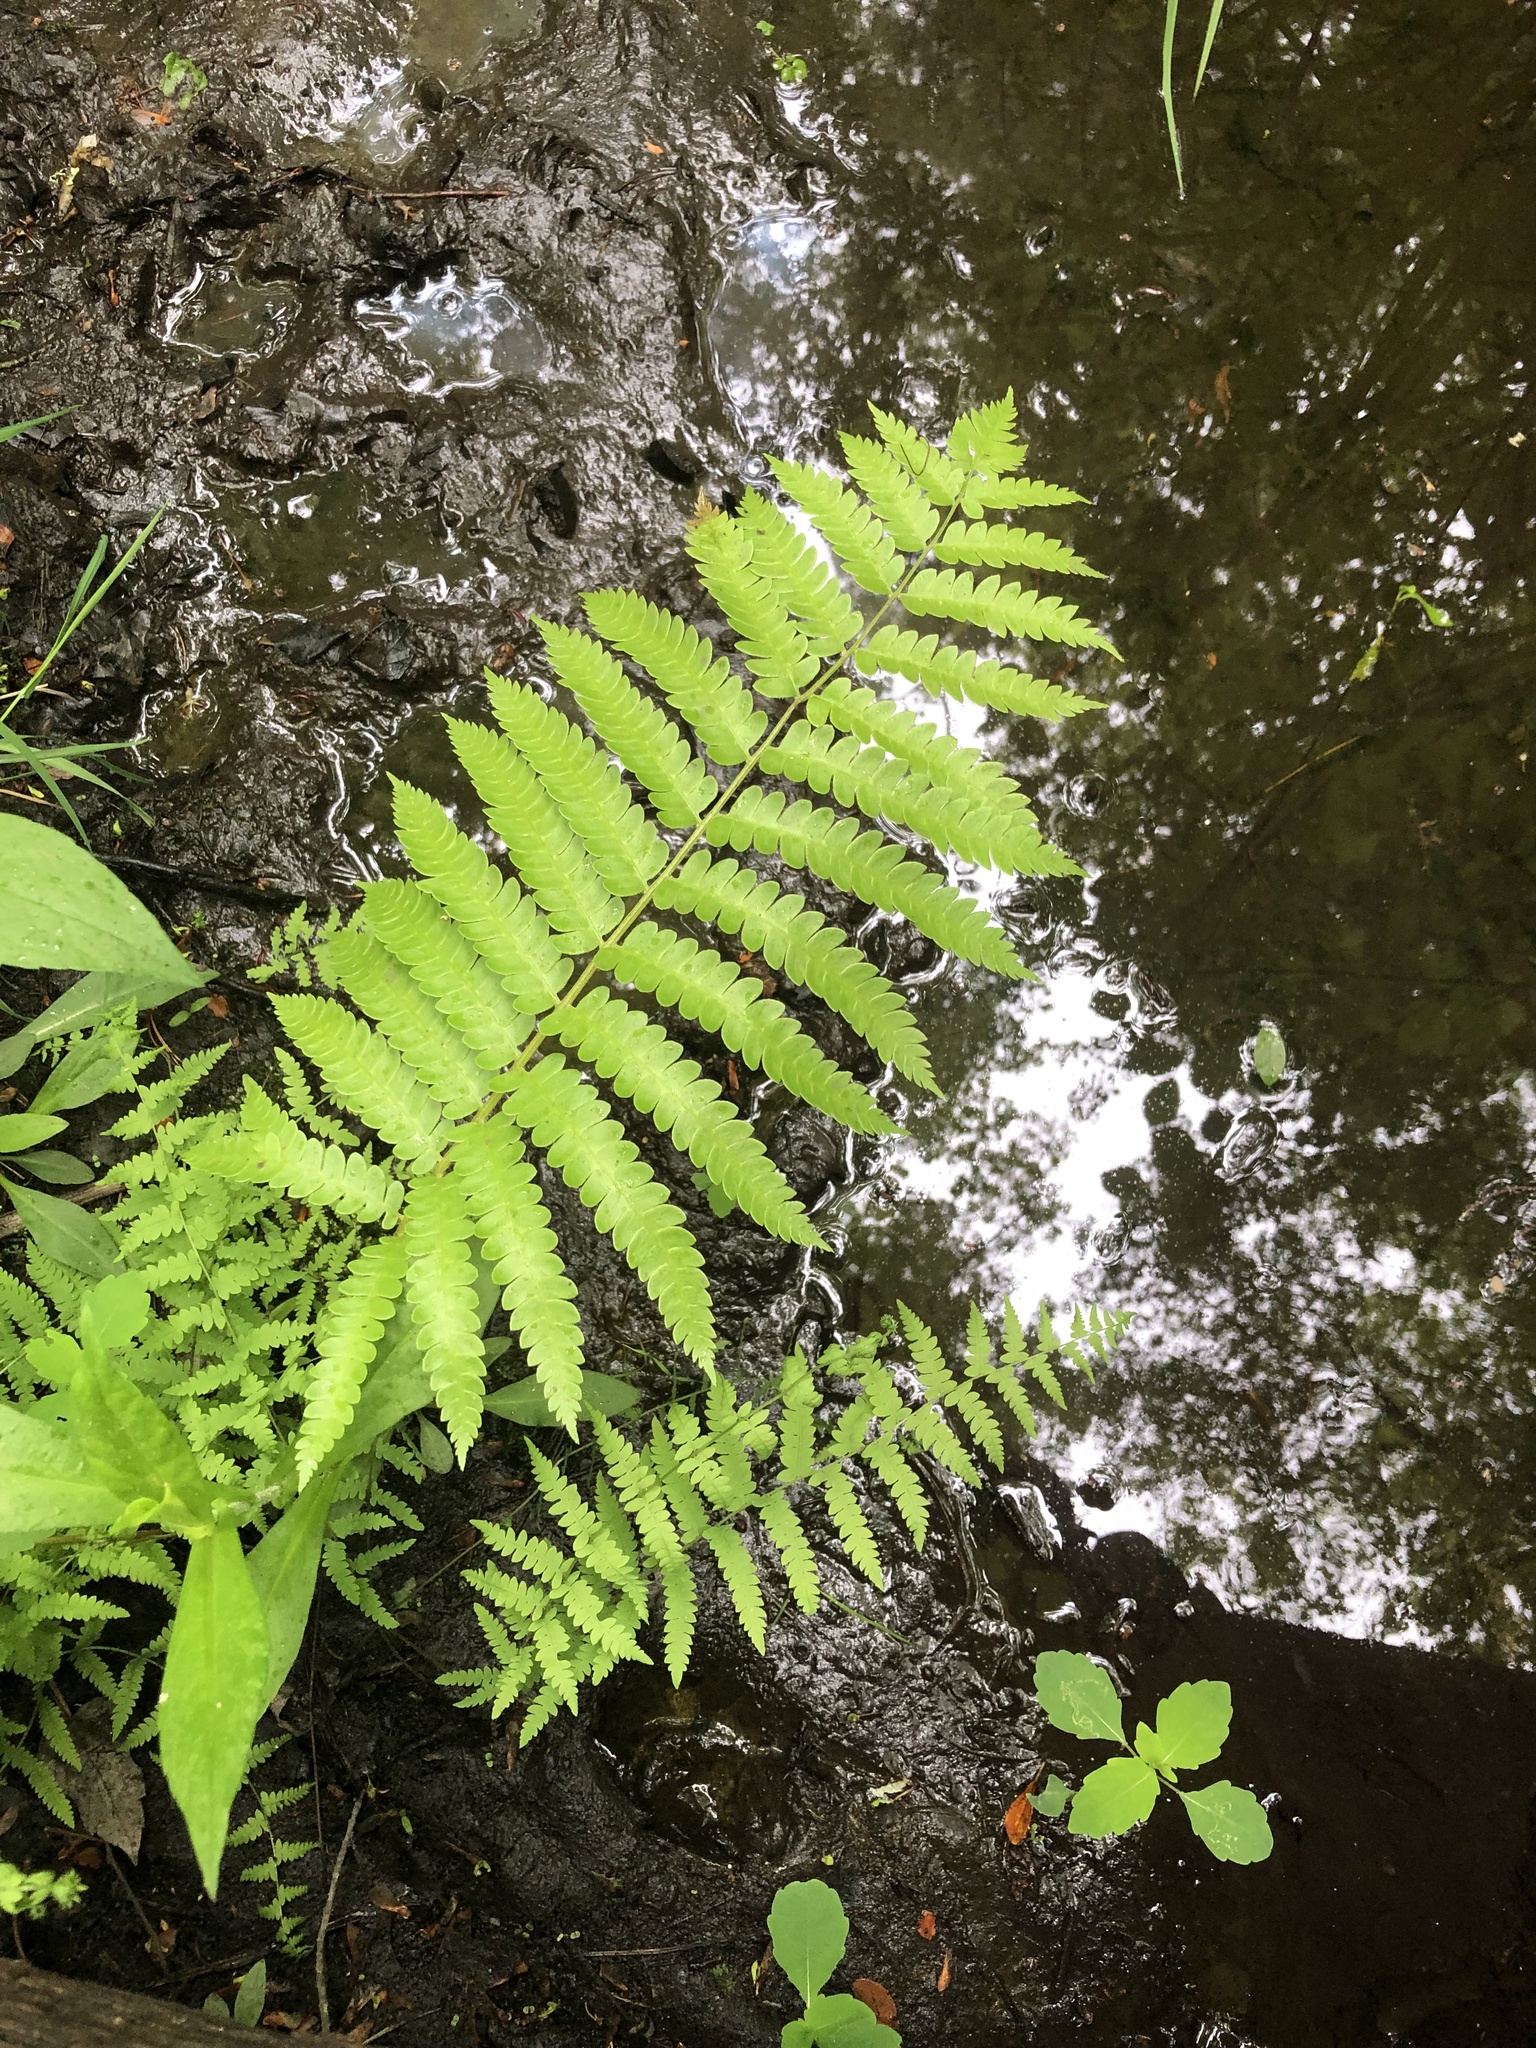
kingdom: Plantae
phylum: Tracheophyta
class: Polypodiopsida
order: Osmundales
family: Osmundaceae
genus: Osmundastrum
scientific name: Osmundastrum cinnamomeum
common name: Cinnamon fern
